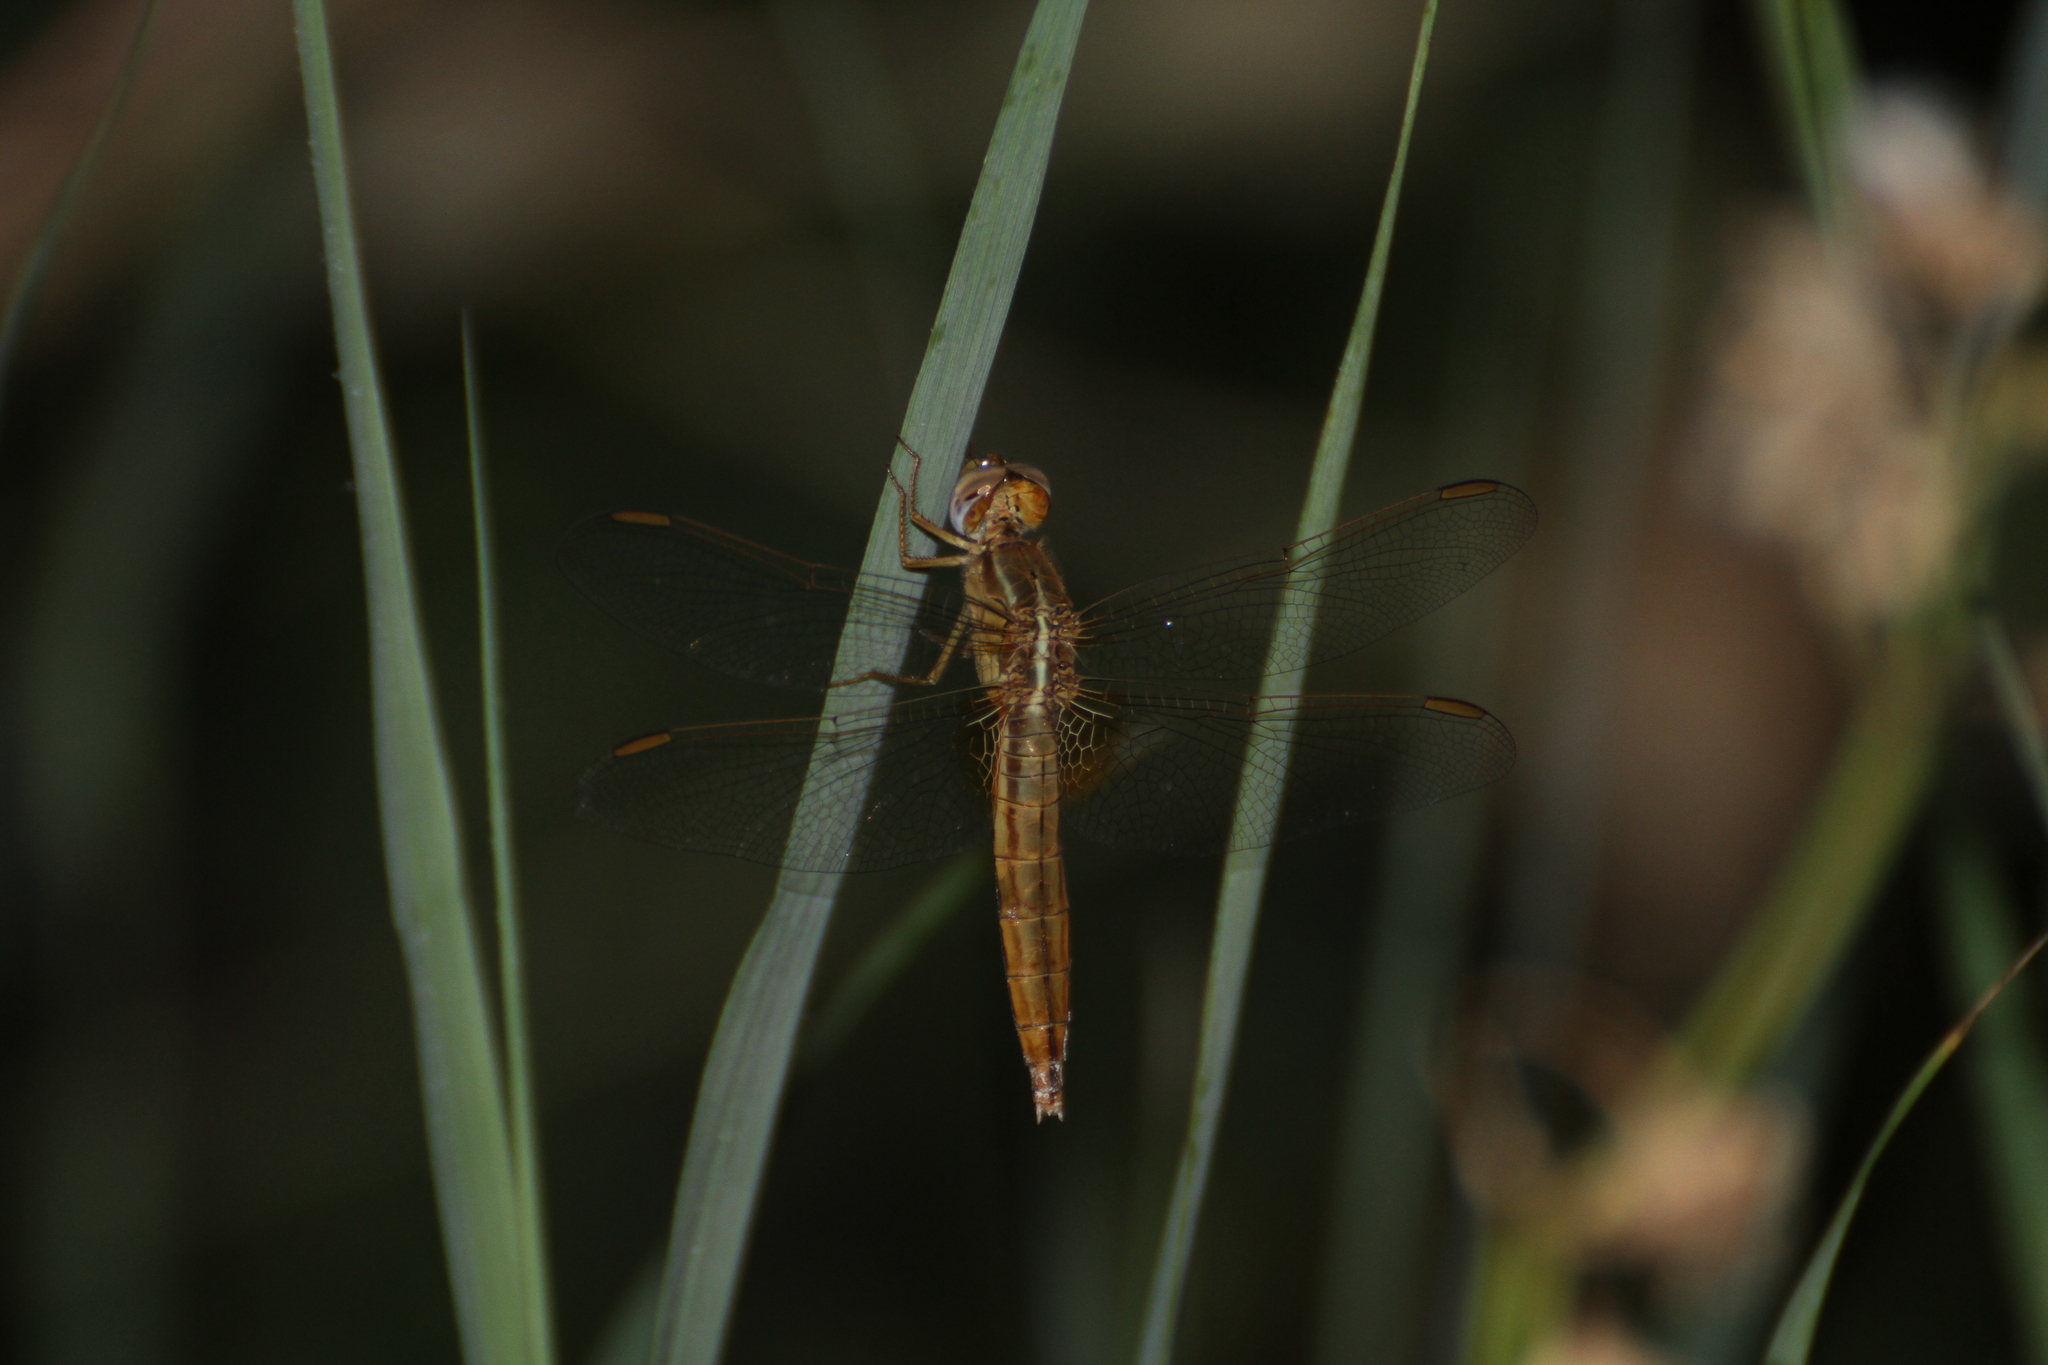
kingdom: Animalia
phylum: Arthropoda
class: Insecta
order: Odonata
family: Libellulidae
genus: Crocothemis
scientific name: Crocothemis erythraea
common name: Scarlet dragonfly
